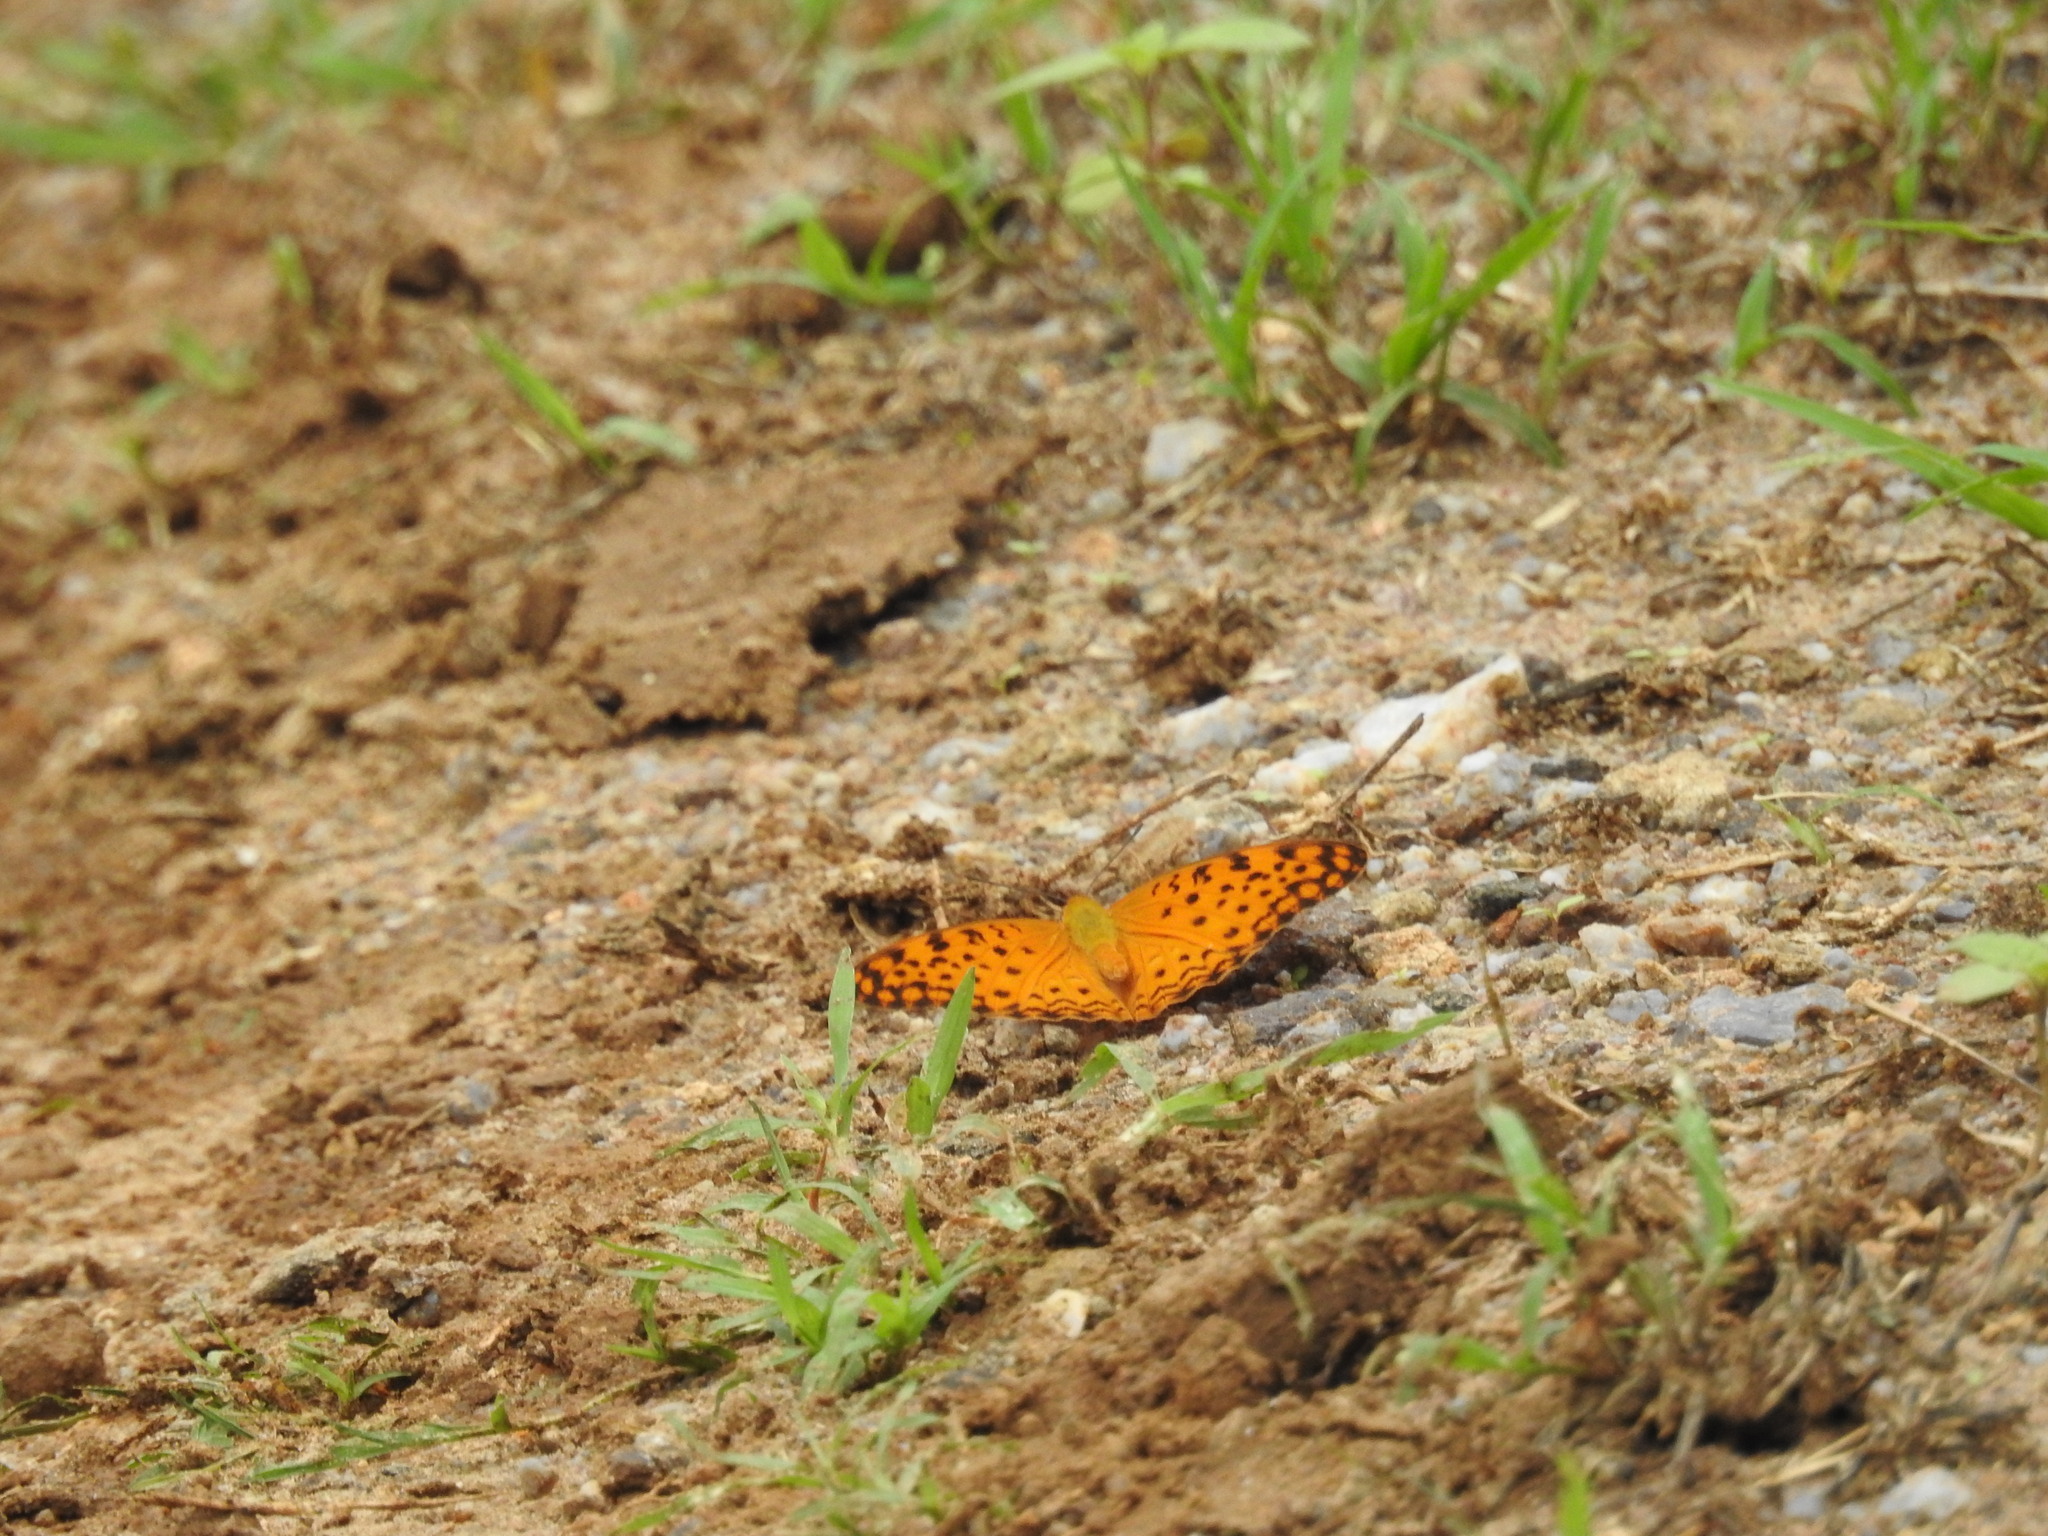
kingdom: Animalia
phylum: Arthropoda
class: Insecta
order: Lepidoptera
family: Nymphalidae
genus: Phalanta
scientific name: Phalanta phalantha
